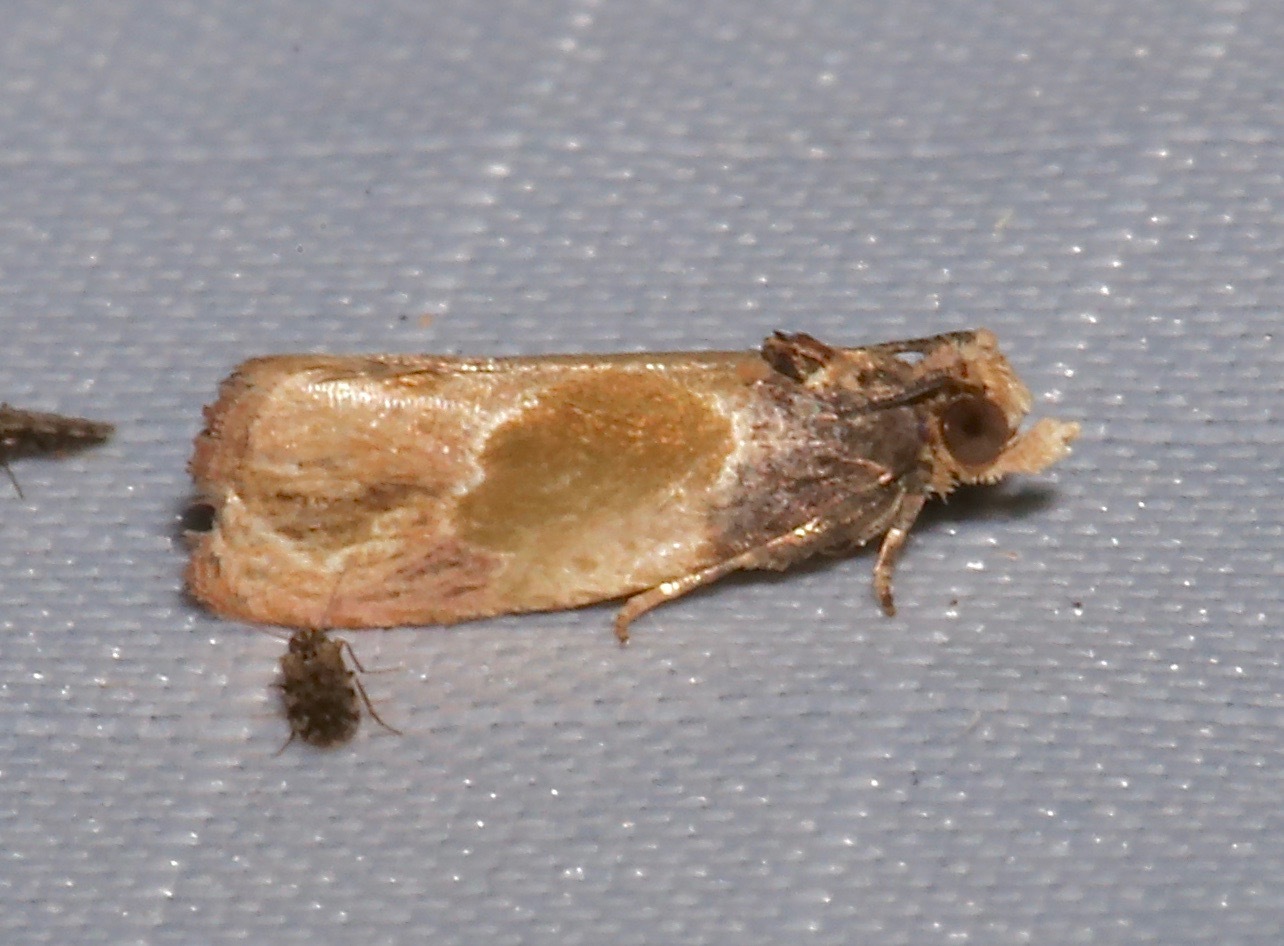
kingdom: Animalia
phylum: Arthropoda
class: Insecta
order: Lepidoptera
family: Tortricidae
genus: Eumarozia
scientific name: Eumarozia malachitana
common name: Sculptured moth
